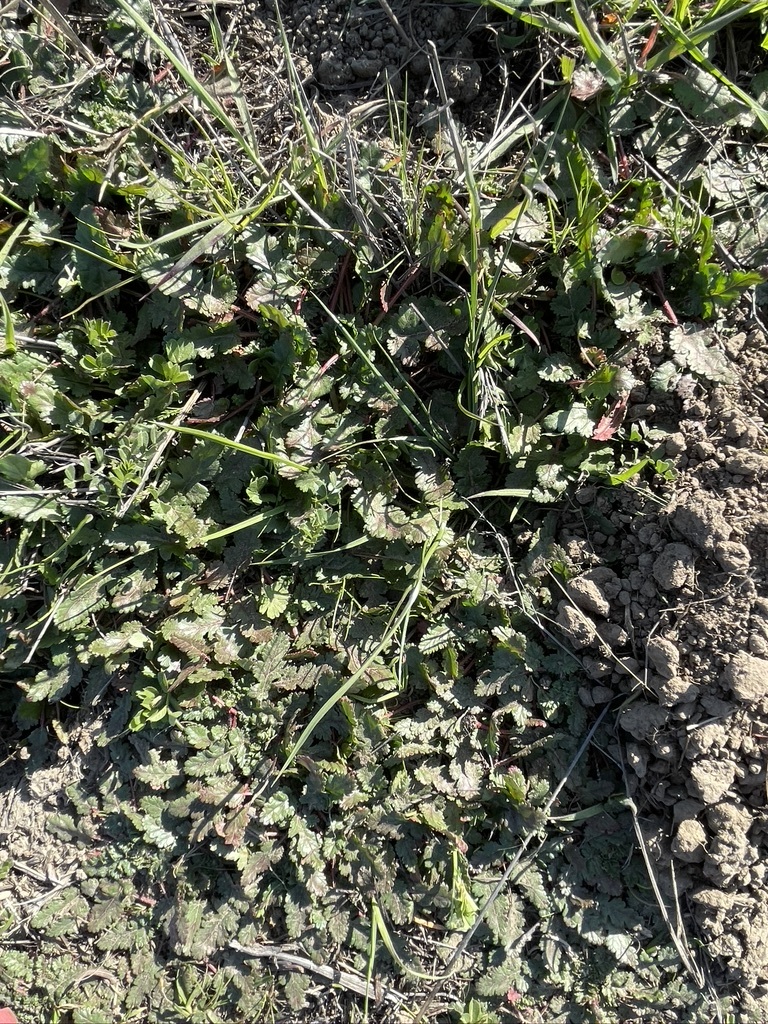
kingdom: Plantae
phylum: Tracheophyta
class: Magnoliopsida
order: Geraniales
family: Geraniaceae
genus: Erodium
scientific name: Erodium
